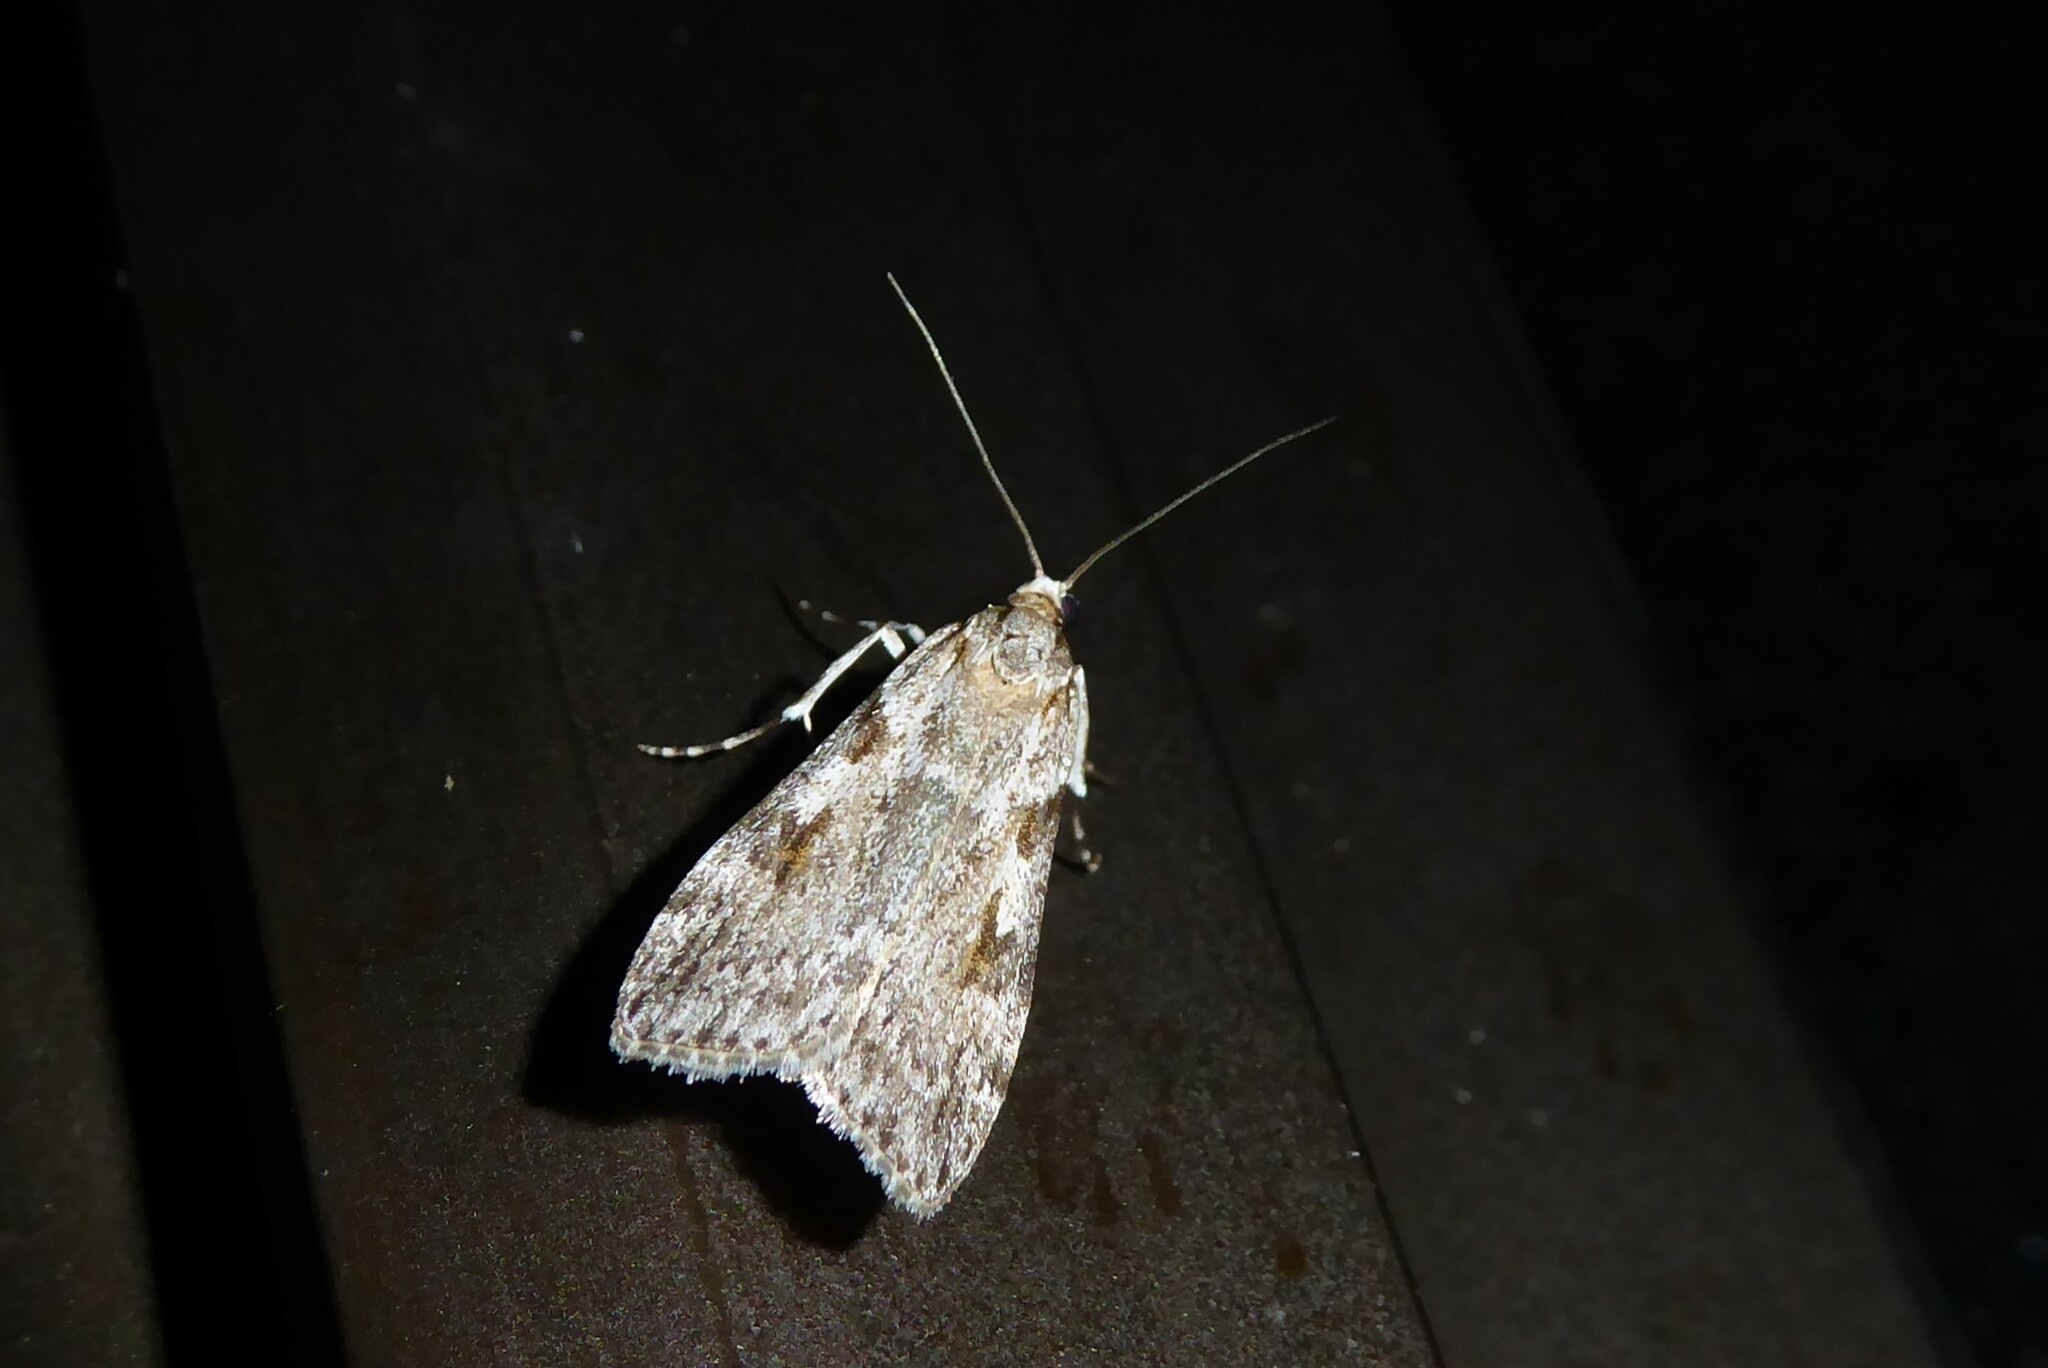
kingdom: Animalia
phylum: Arthropoda
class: Insecta
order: Lepidoptera
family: Crambidae
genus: Scoparia
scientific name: Scoparia halopis
